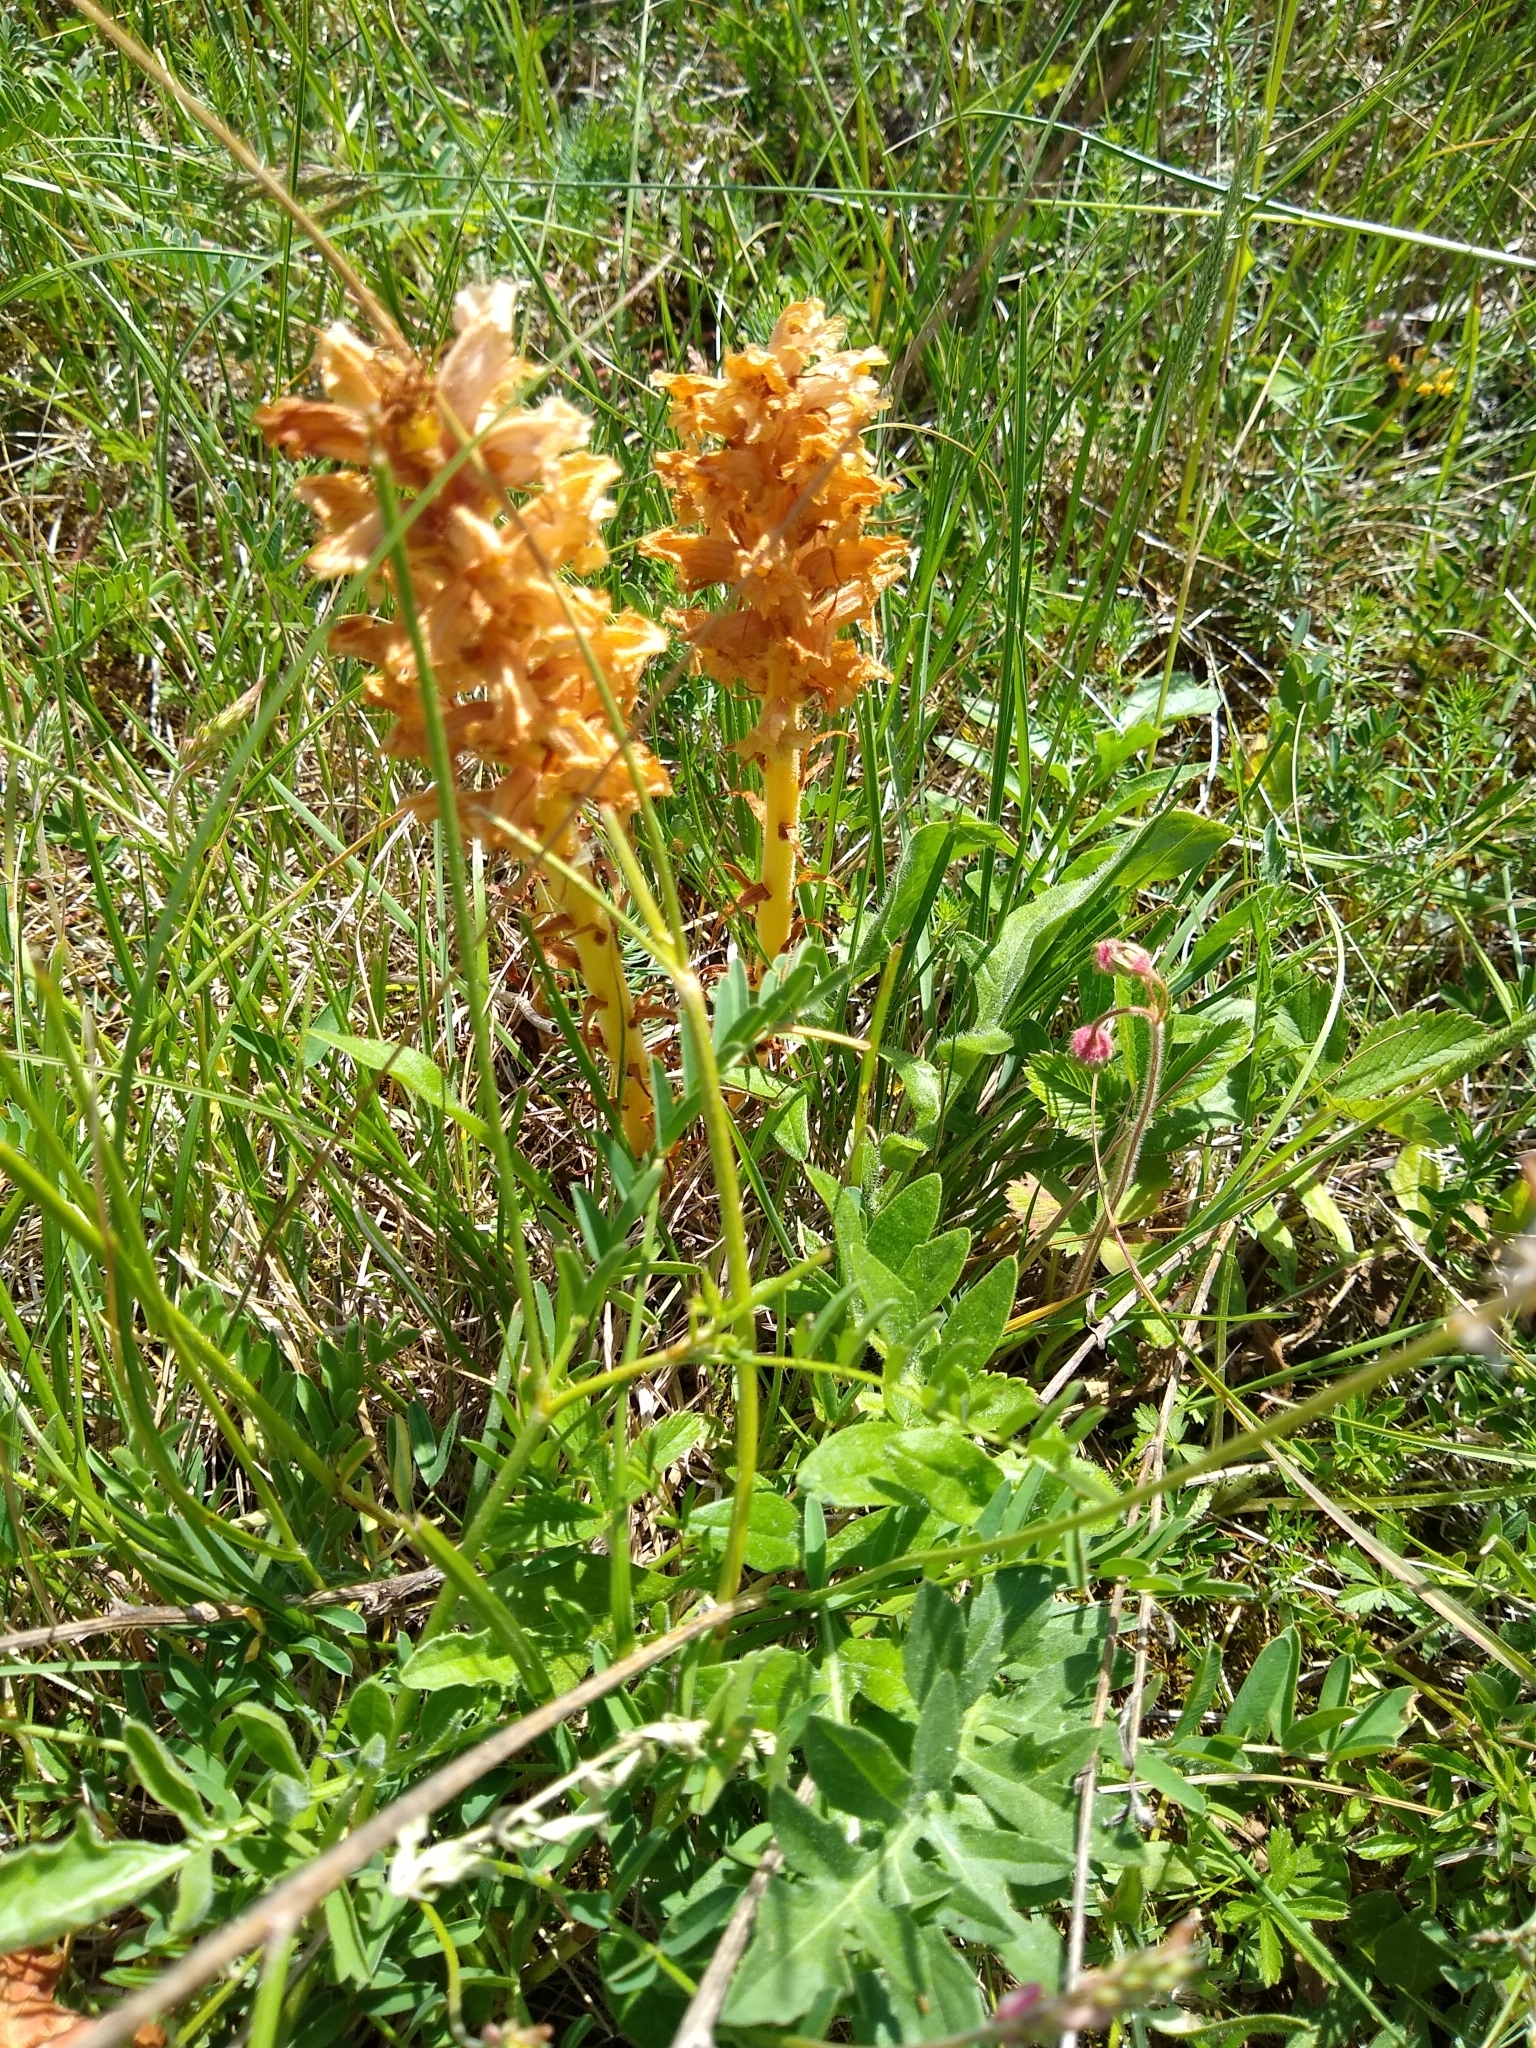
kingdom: Plantae
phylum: Tracheophyta
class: Magnoliopsida
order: Lamiales
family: Orobanchaceae
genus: Orobanche
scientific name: Orobanche elatior
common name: Knapweed broomrape
